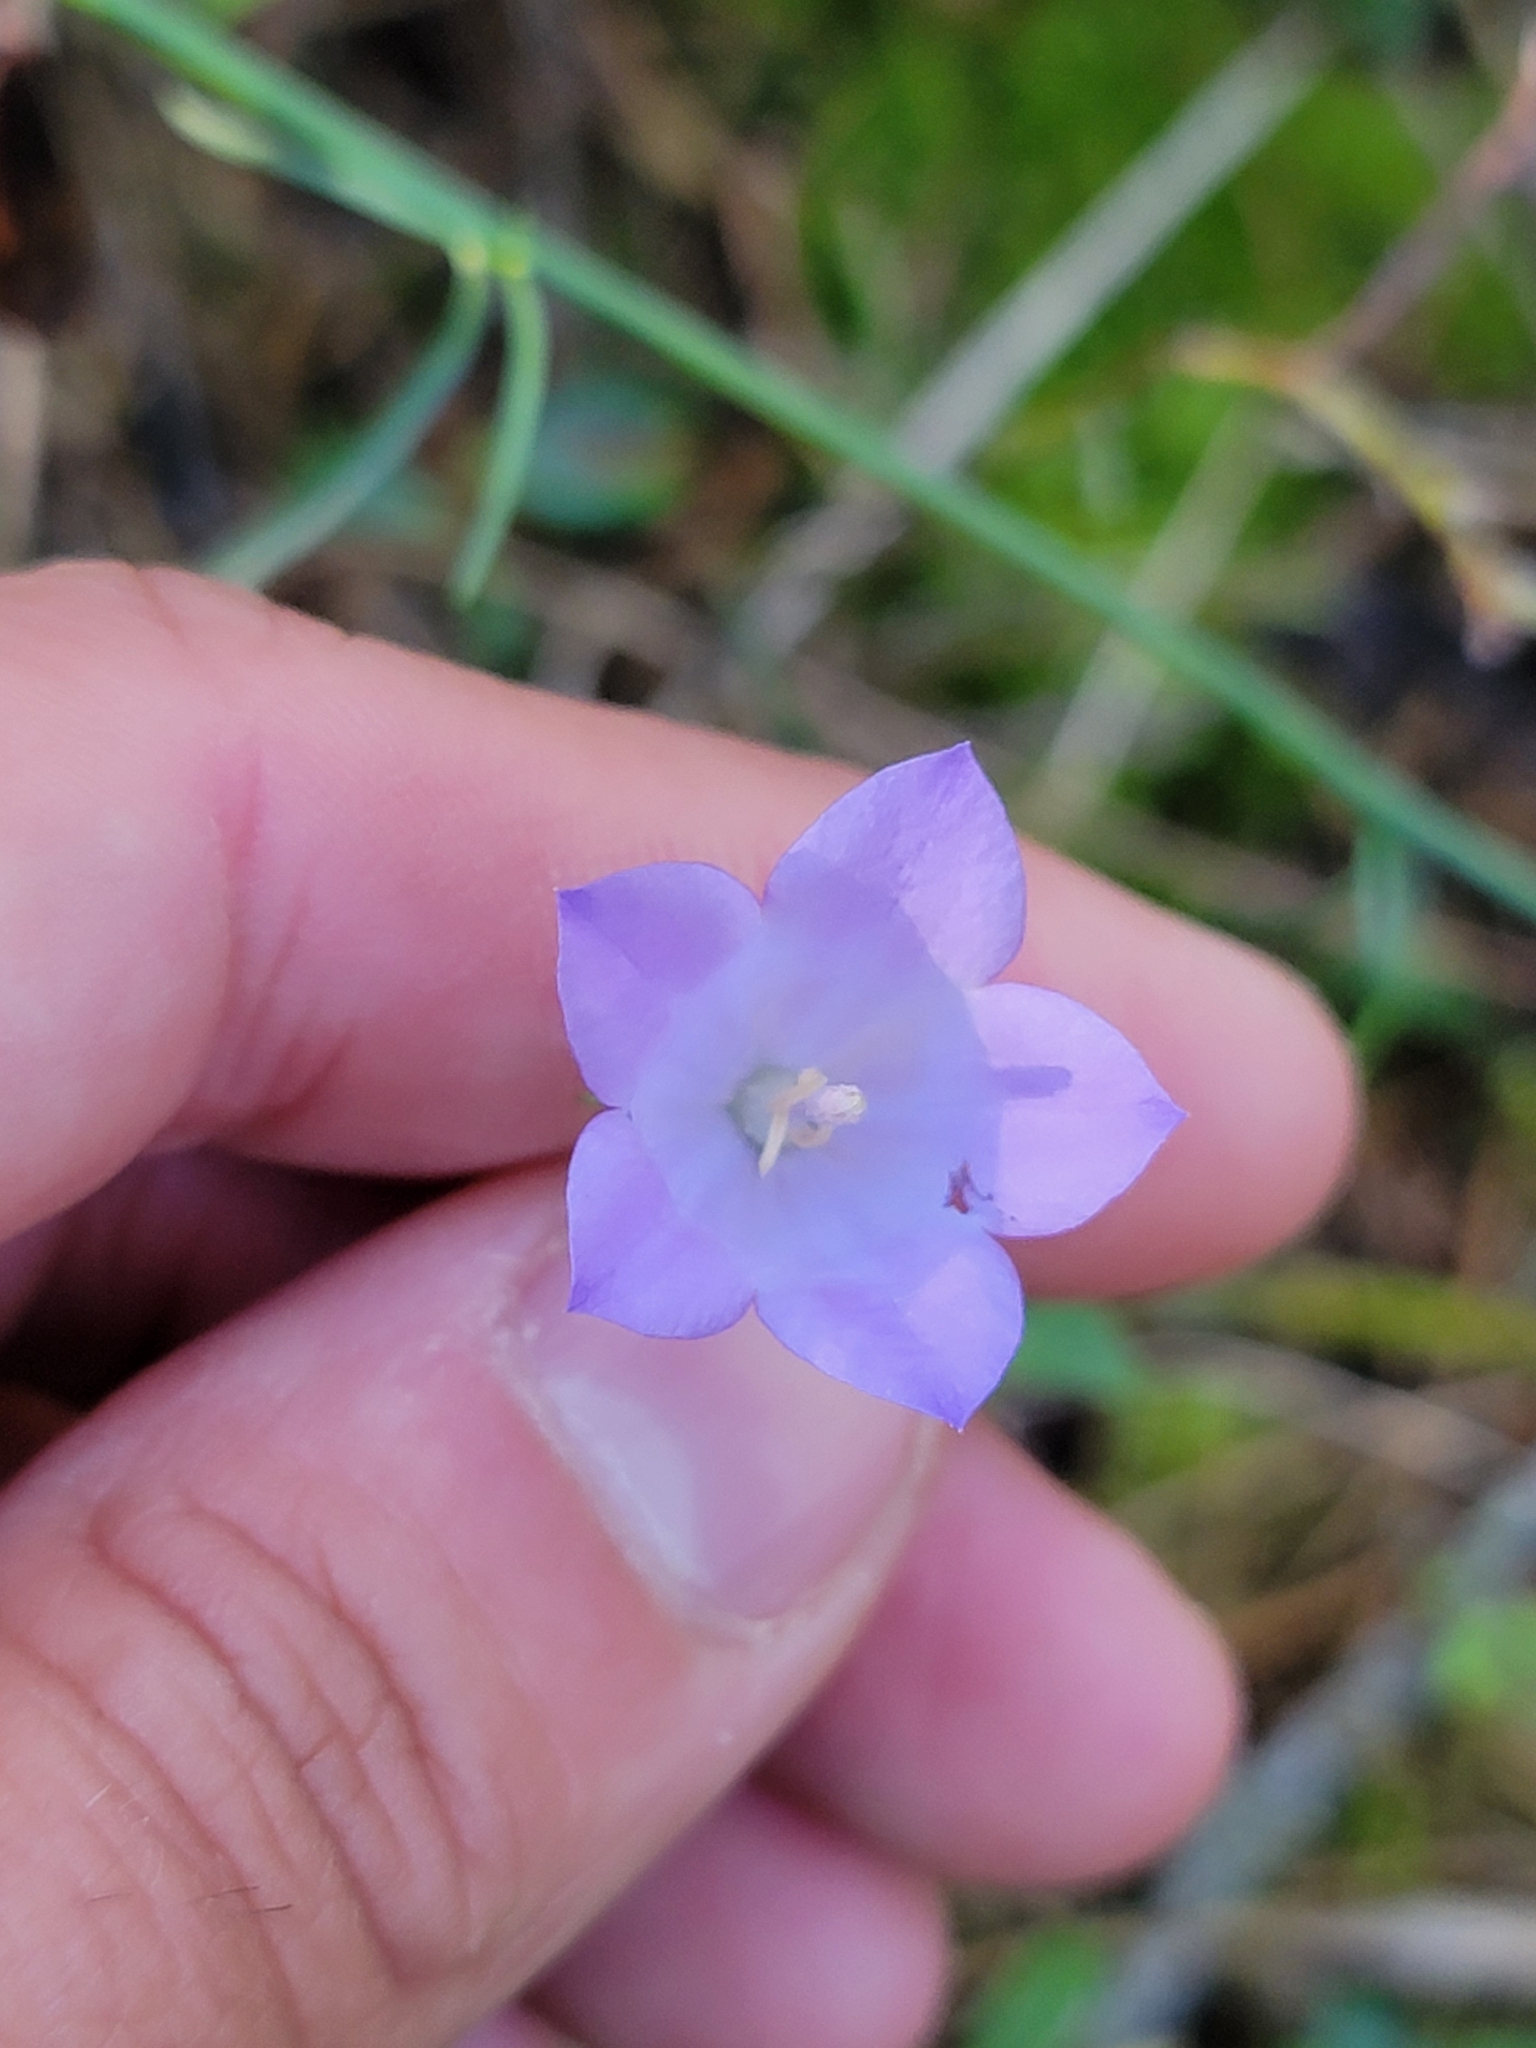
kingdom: Plantae
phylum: Tracheophyta
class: Magnoliopsida
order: Asterales
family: Campanulaceae
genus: Campanula
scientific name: Campanula alaskana
